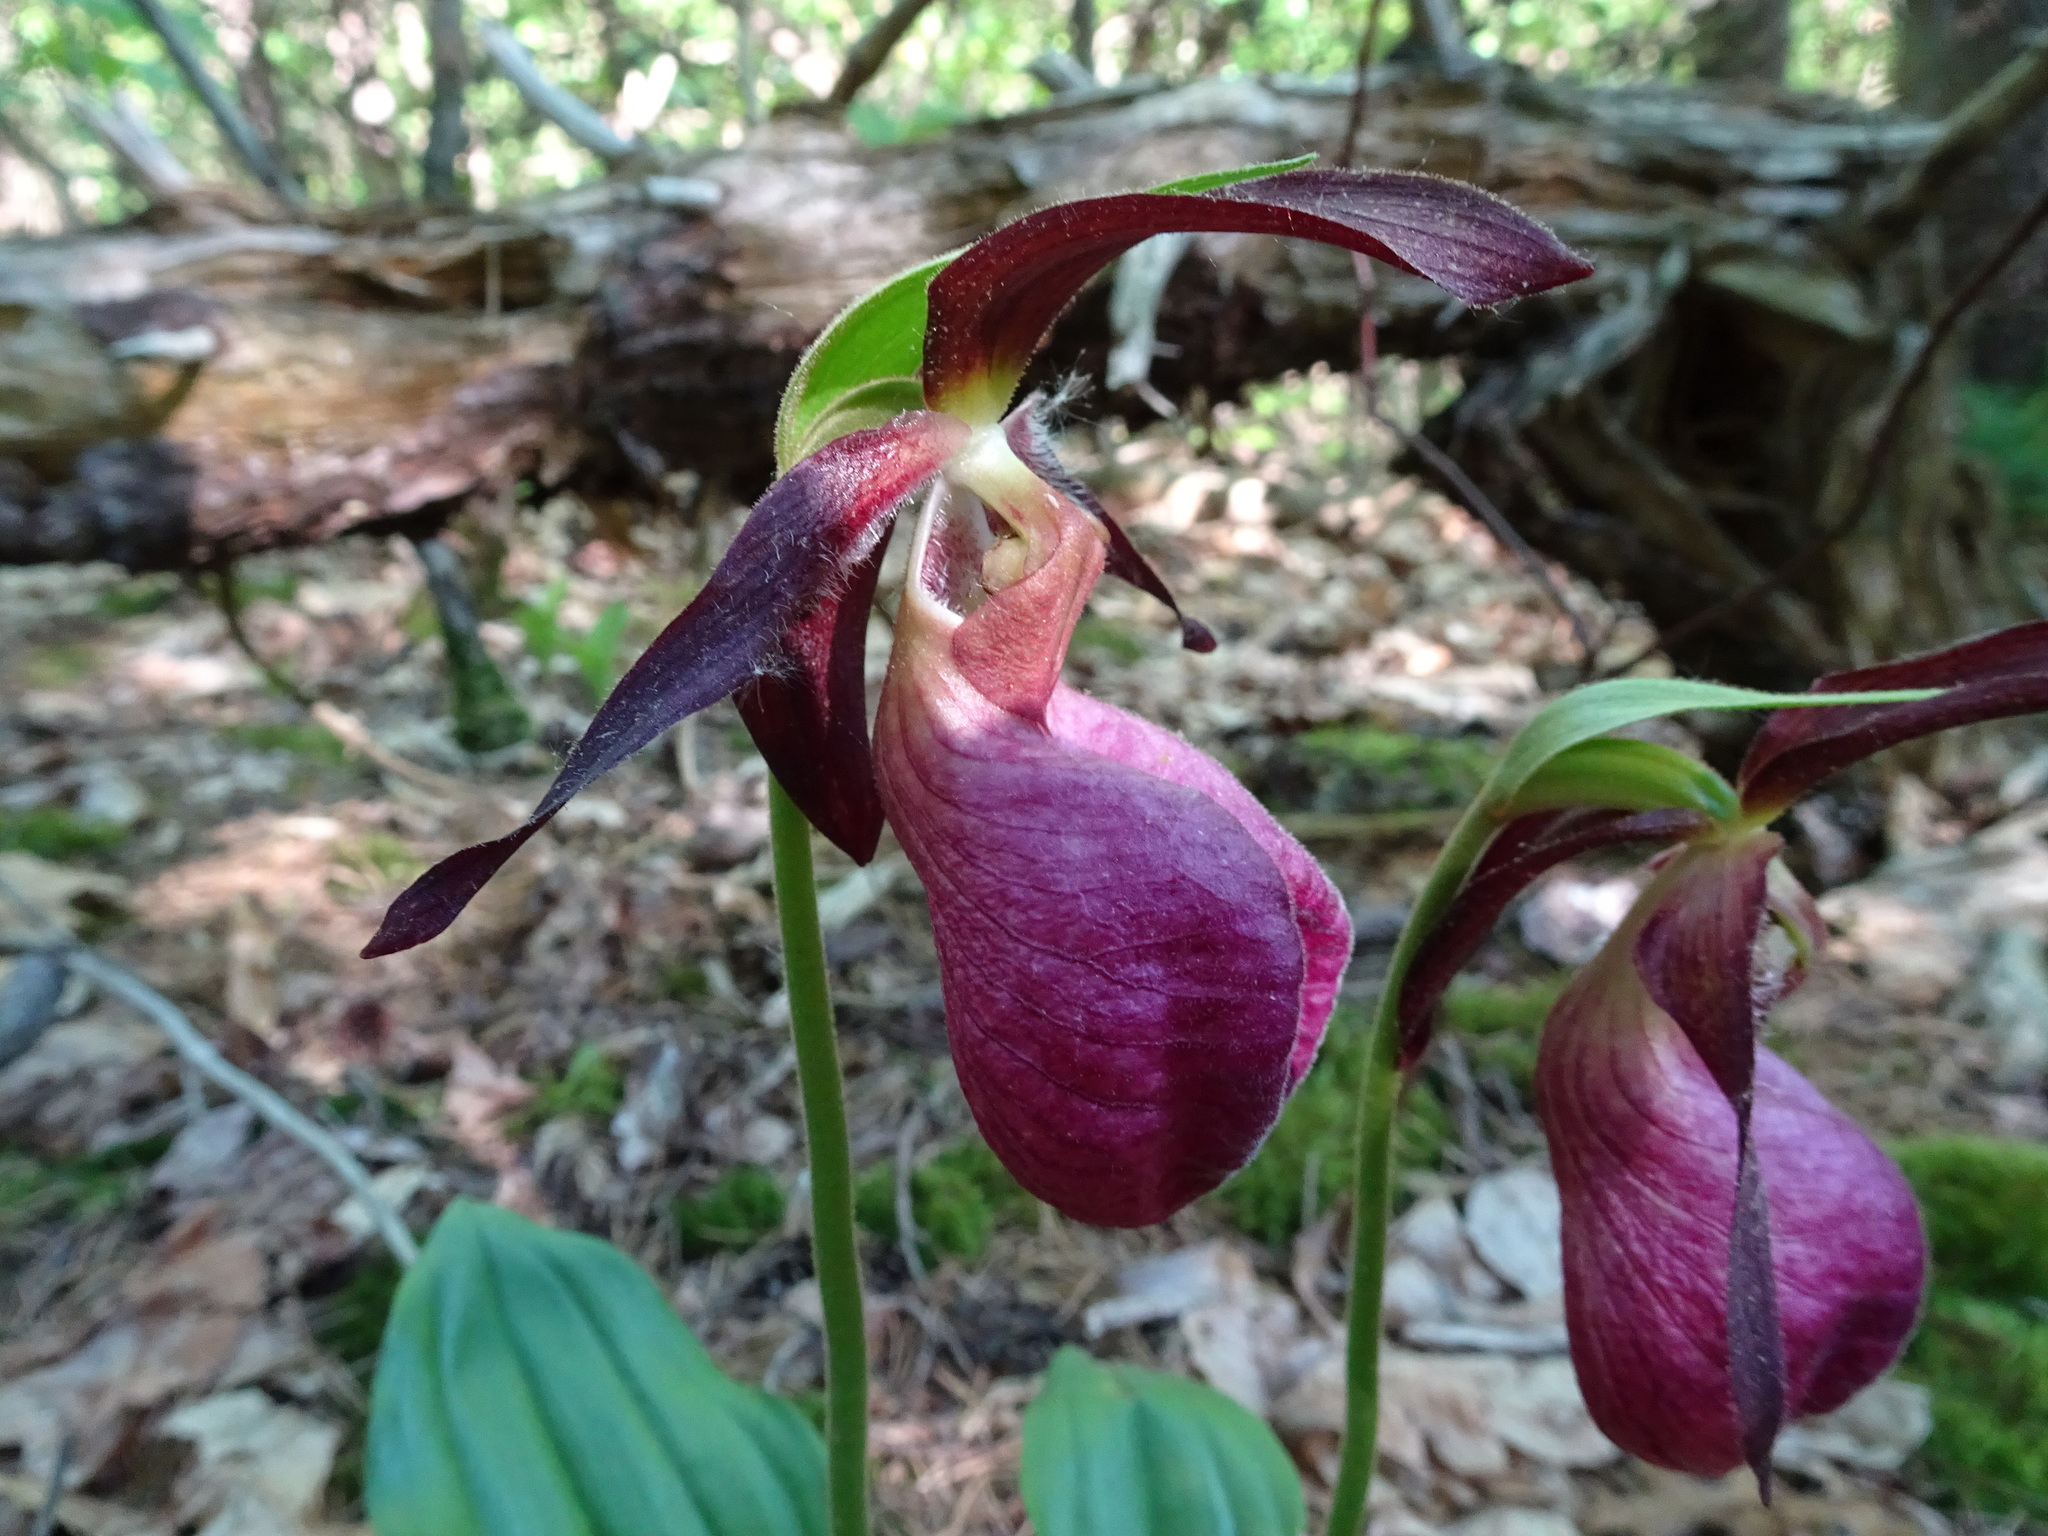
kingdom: Plantae
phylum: Tracheophyta
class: Liliopsida
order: Asparagales
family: Orchidaceae
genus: Cypripedium
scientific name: Cypripedium acaule
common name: Pink lady's-slipper
